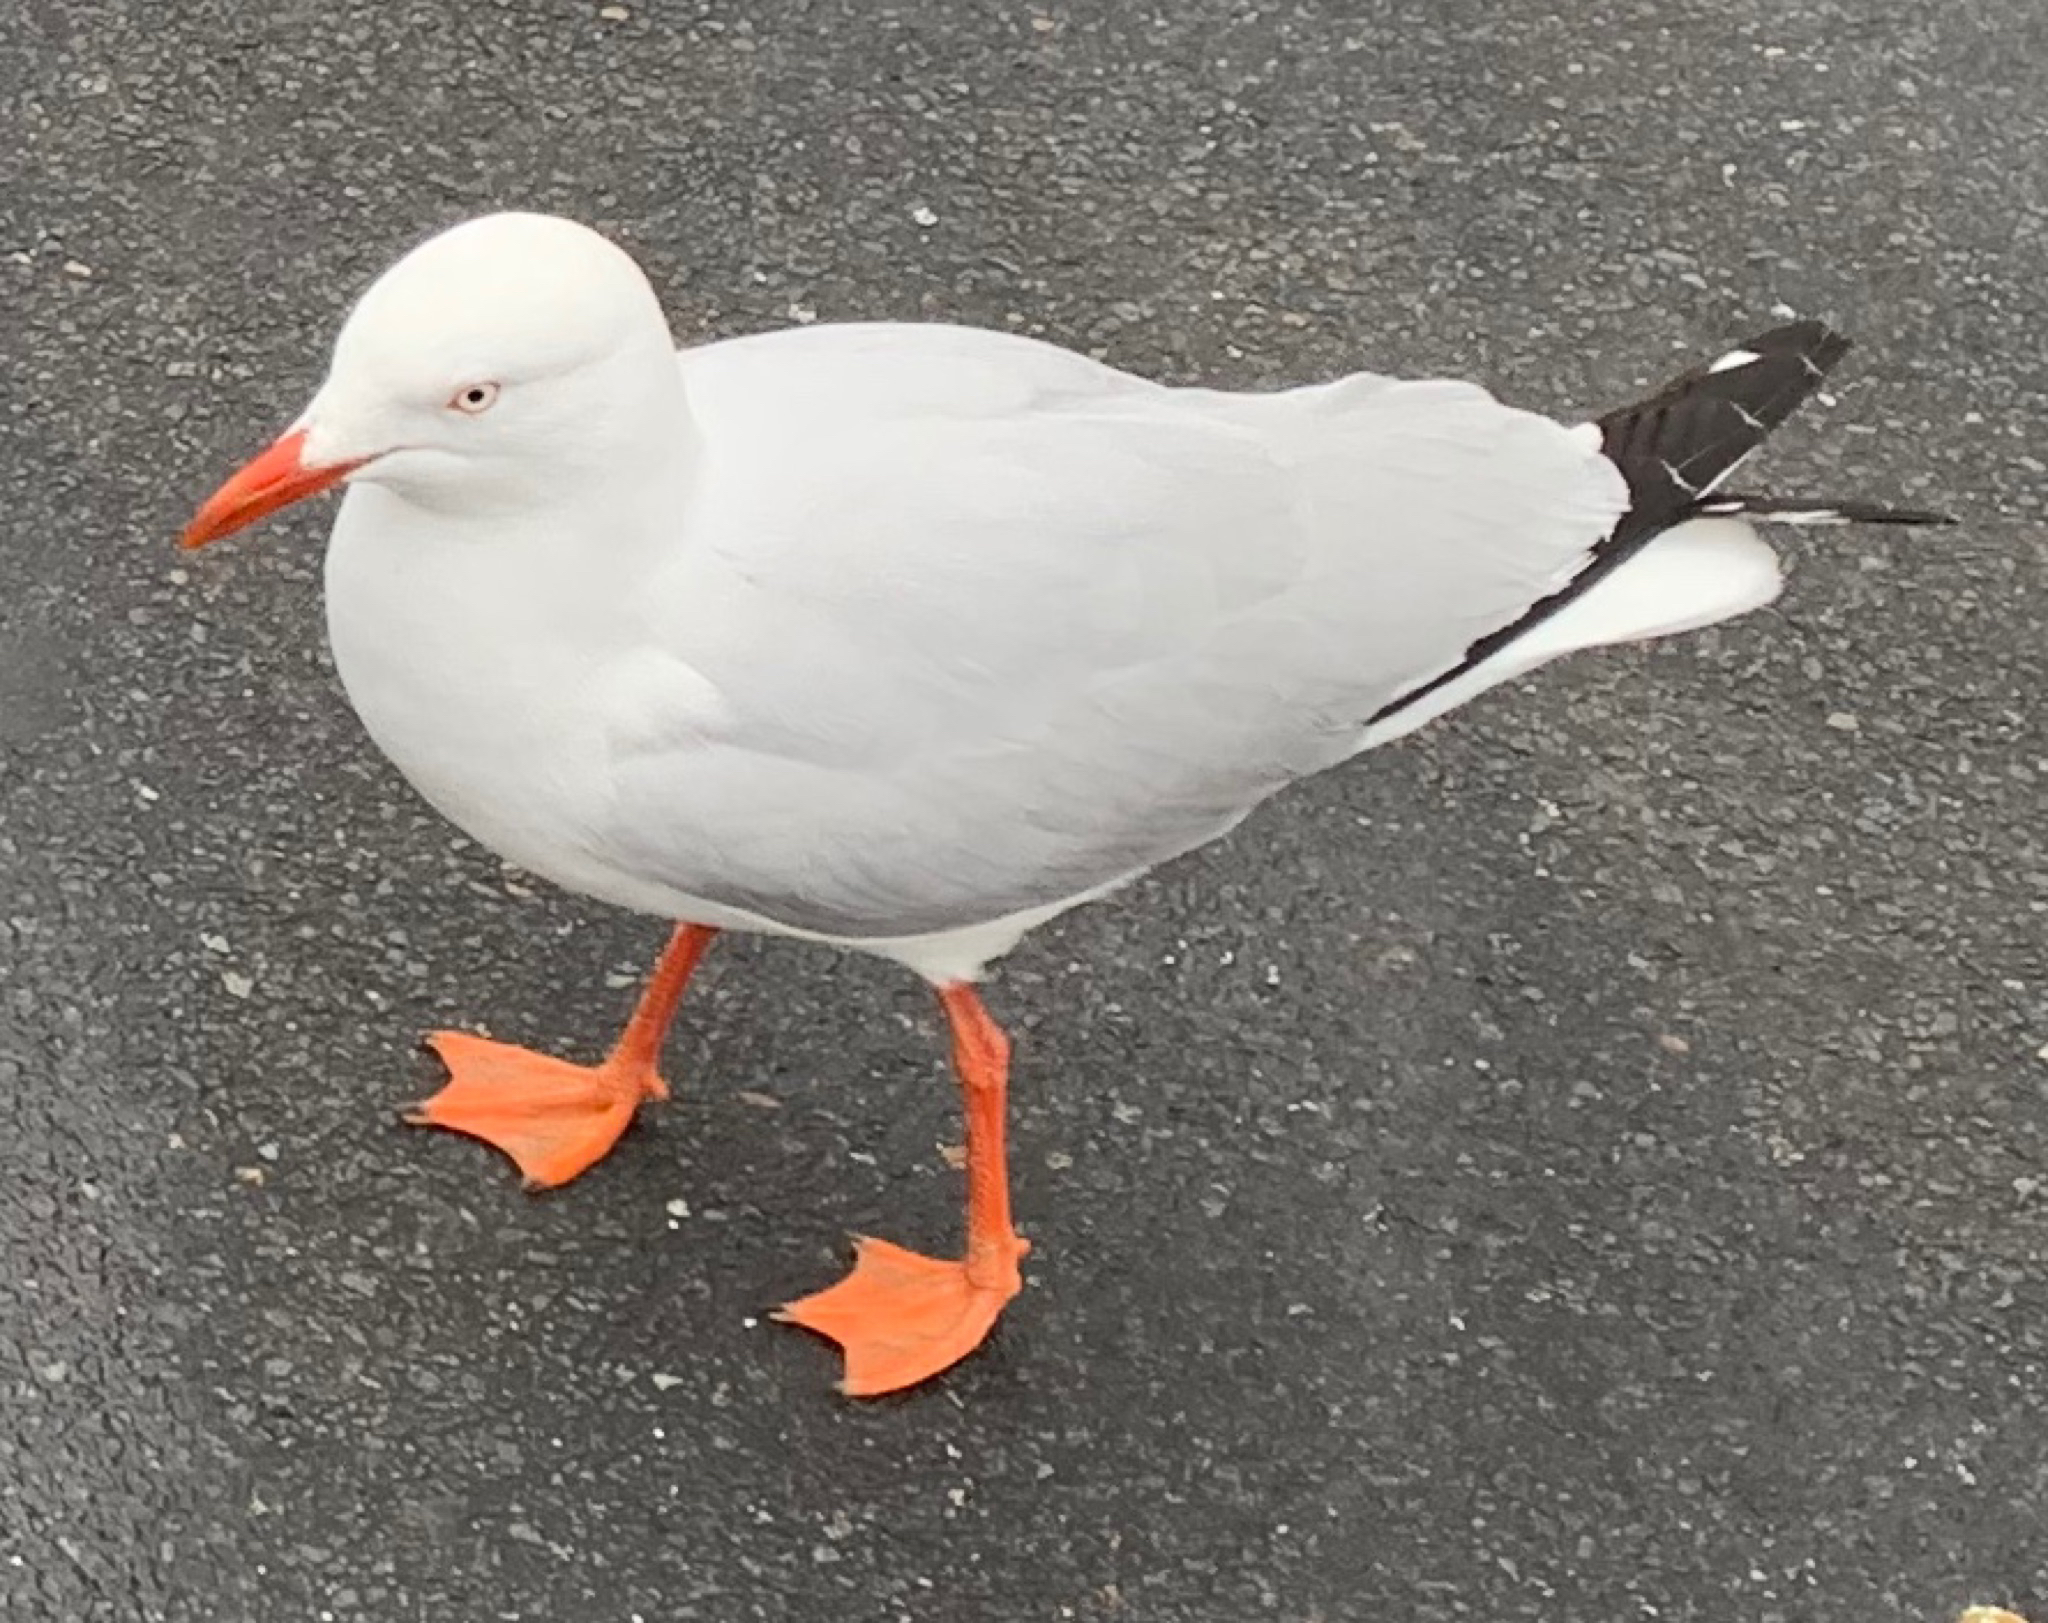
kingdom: Animalia
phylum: Chordata
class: Aves
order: Charadriiformes
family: Laridae
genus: Chroicocephalus
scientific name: Chroicocephalus novaehollandiae
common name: Silver gull
